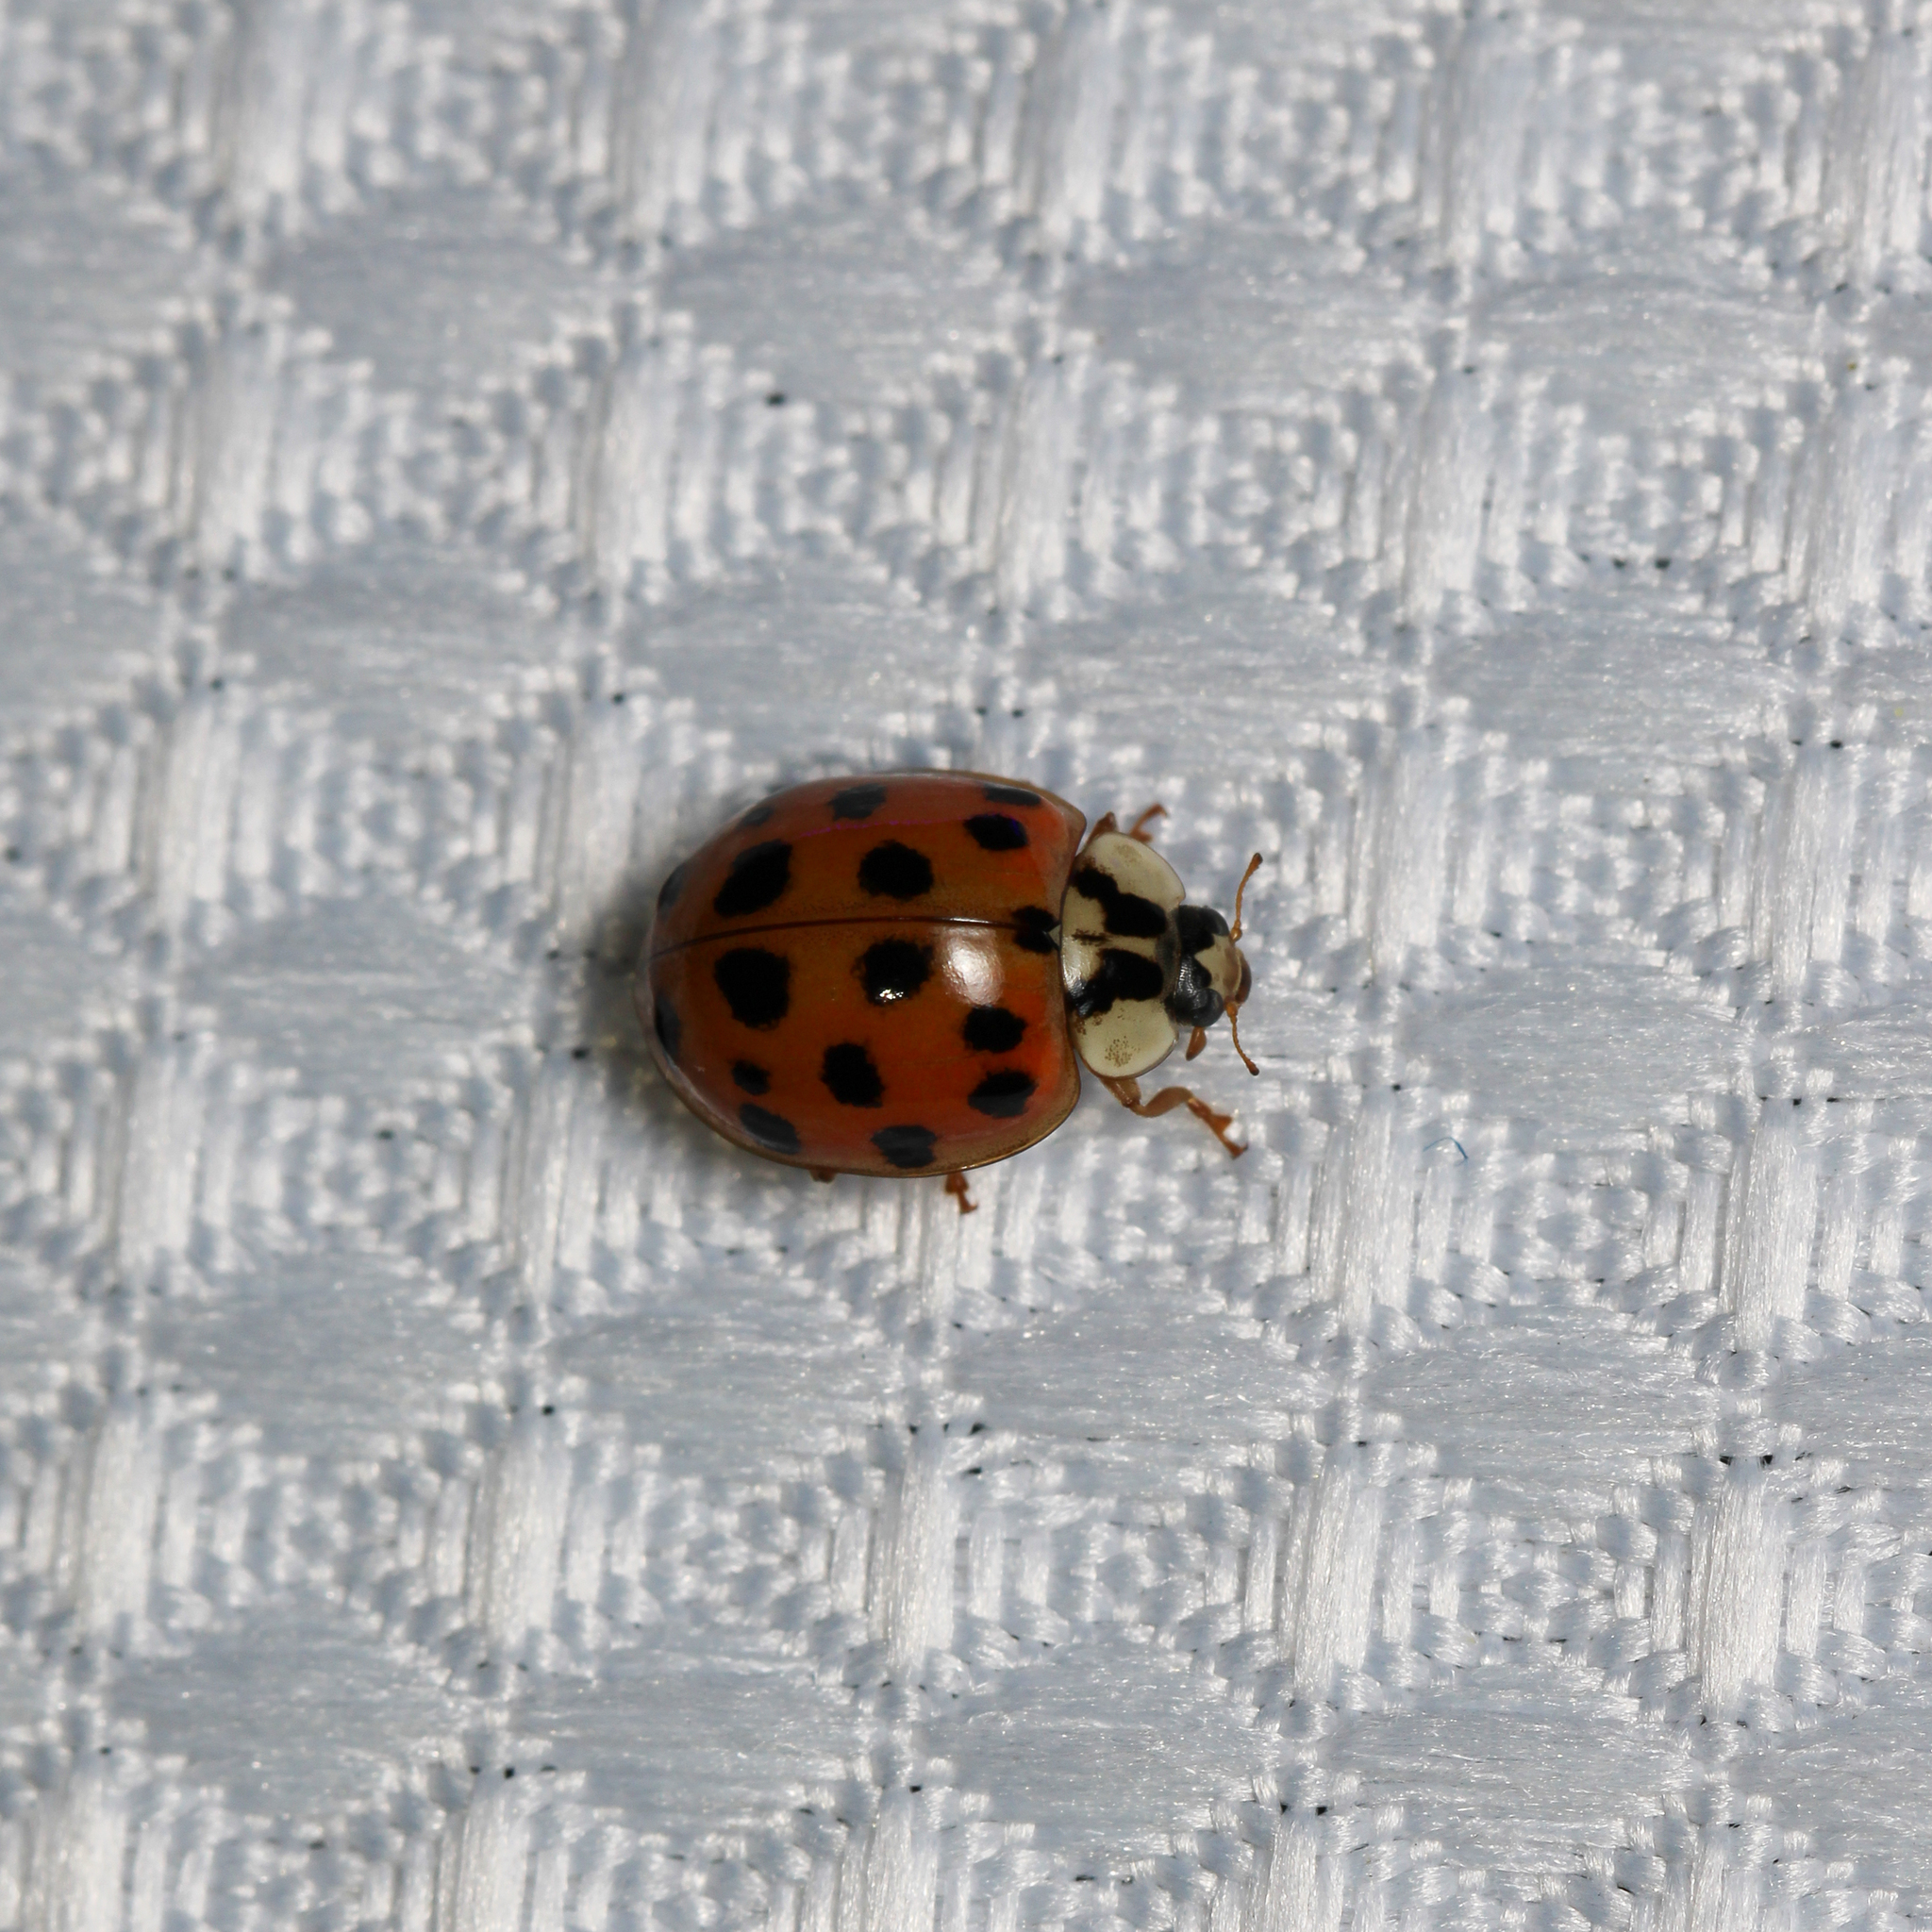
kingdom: Animalia
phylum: Arthropoda
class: Insecta
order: Coleoptera
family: Coccinellidae
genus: Harmonia
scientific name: Harmonia axyridis
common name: Harlequin ladybird
